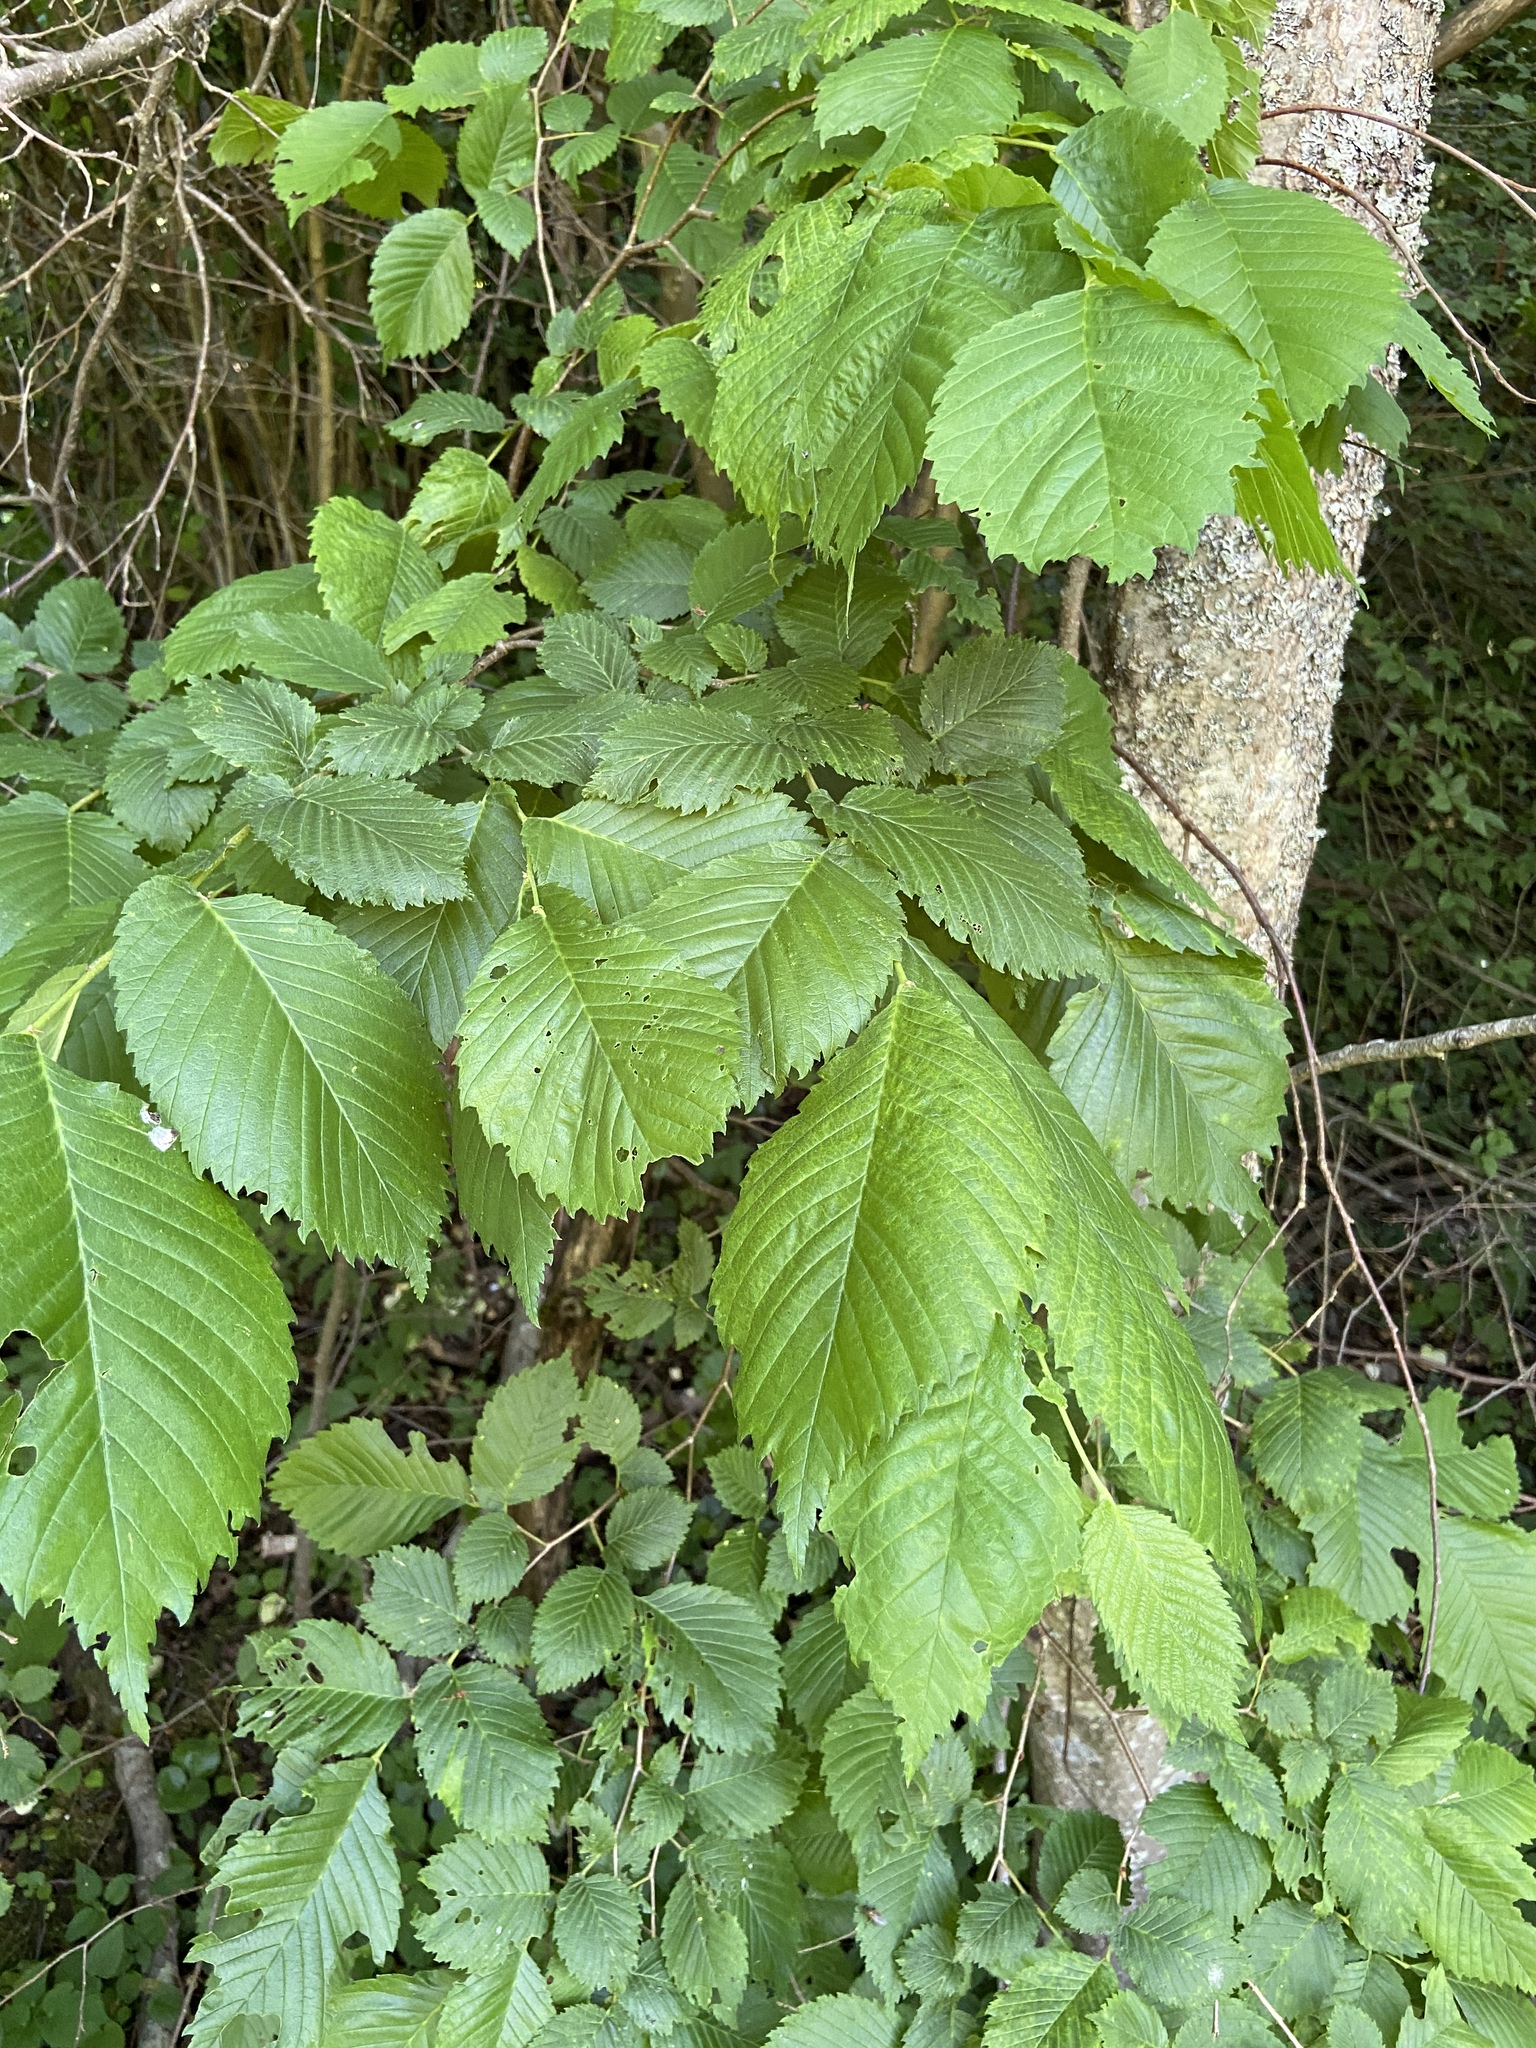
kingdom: Plantae
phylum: Tracheophyta
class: Magnoliopsida
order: Rosales
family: Ulmaceae
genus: Ulmus
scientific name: Ulmus laevis
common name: European white-elm
